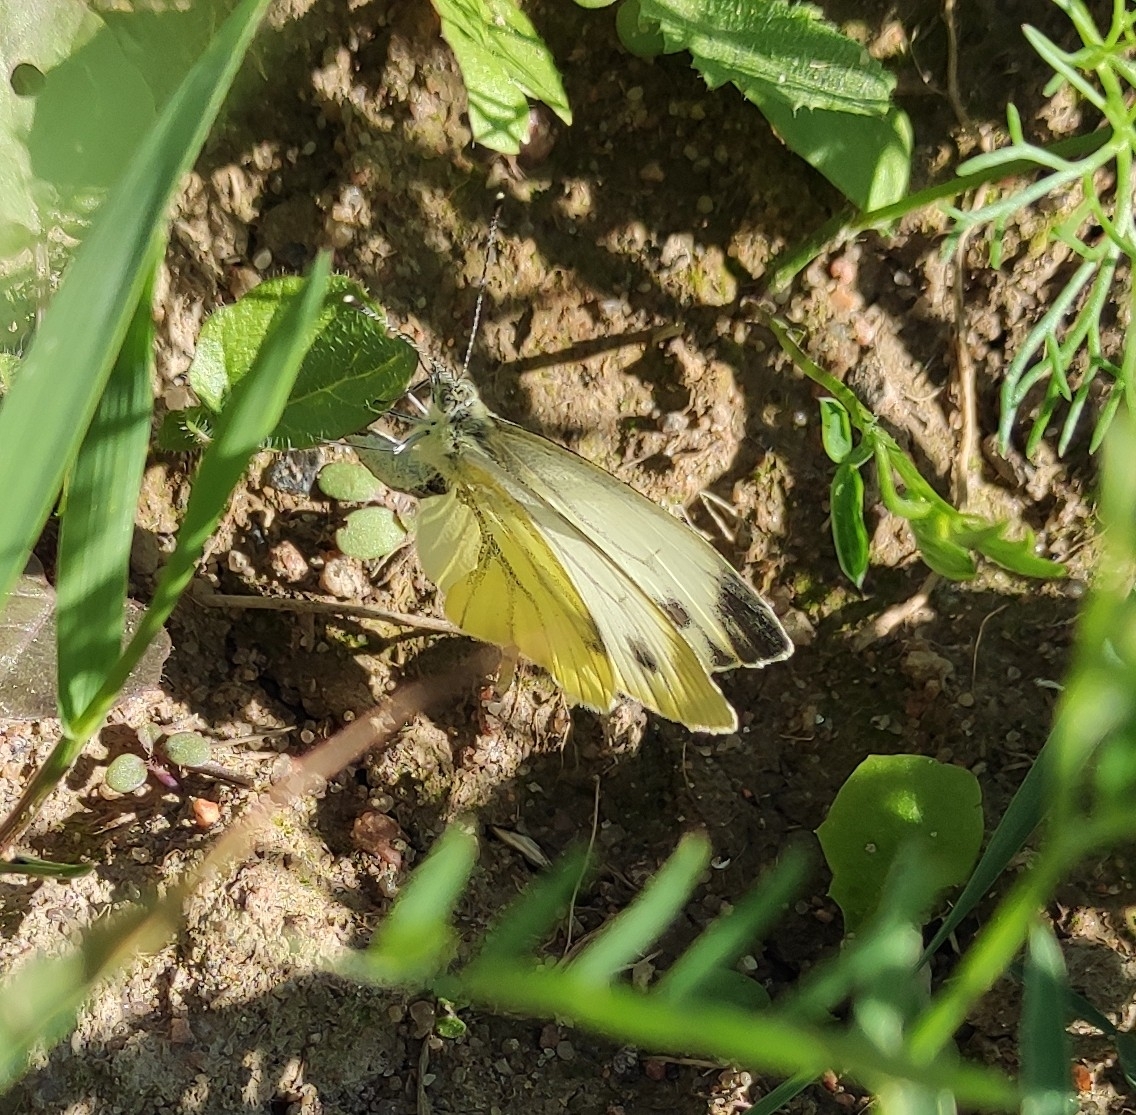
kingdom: Animalia
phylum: Arthropoda
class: Insecta
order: Lepidoptera
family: Pieridae
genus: Pieris
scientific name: Pieris napi
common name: Green-veined white
